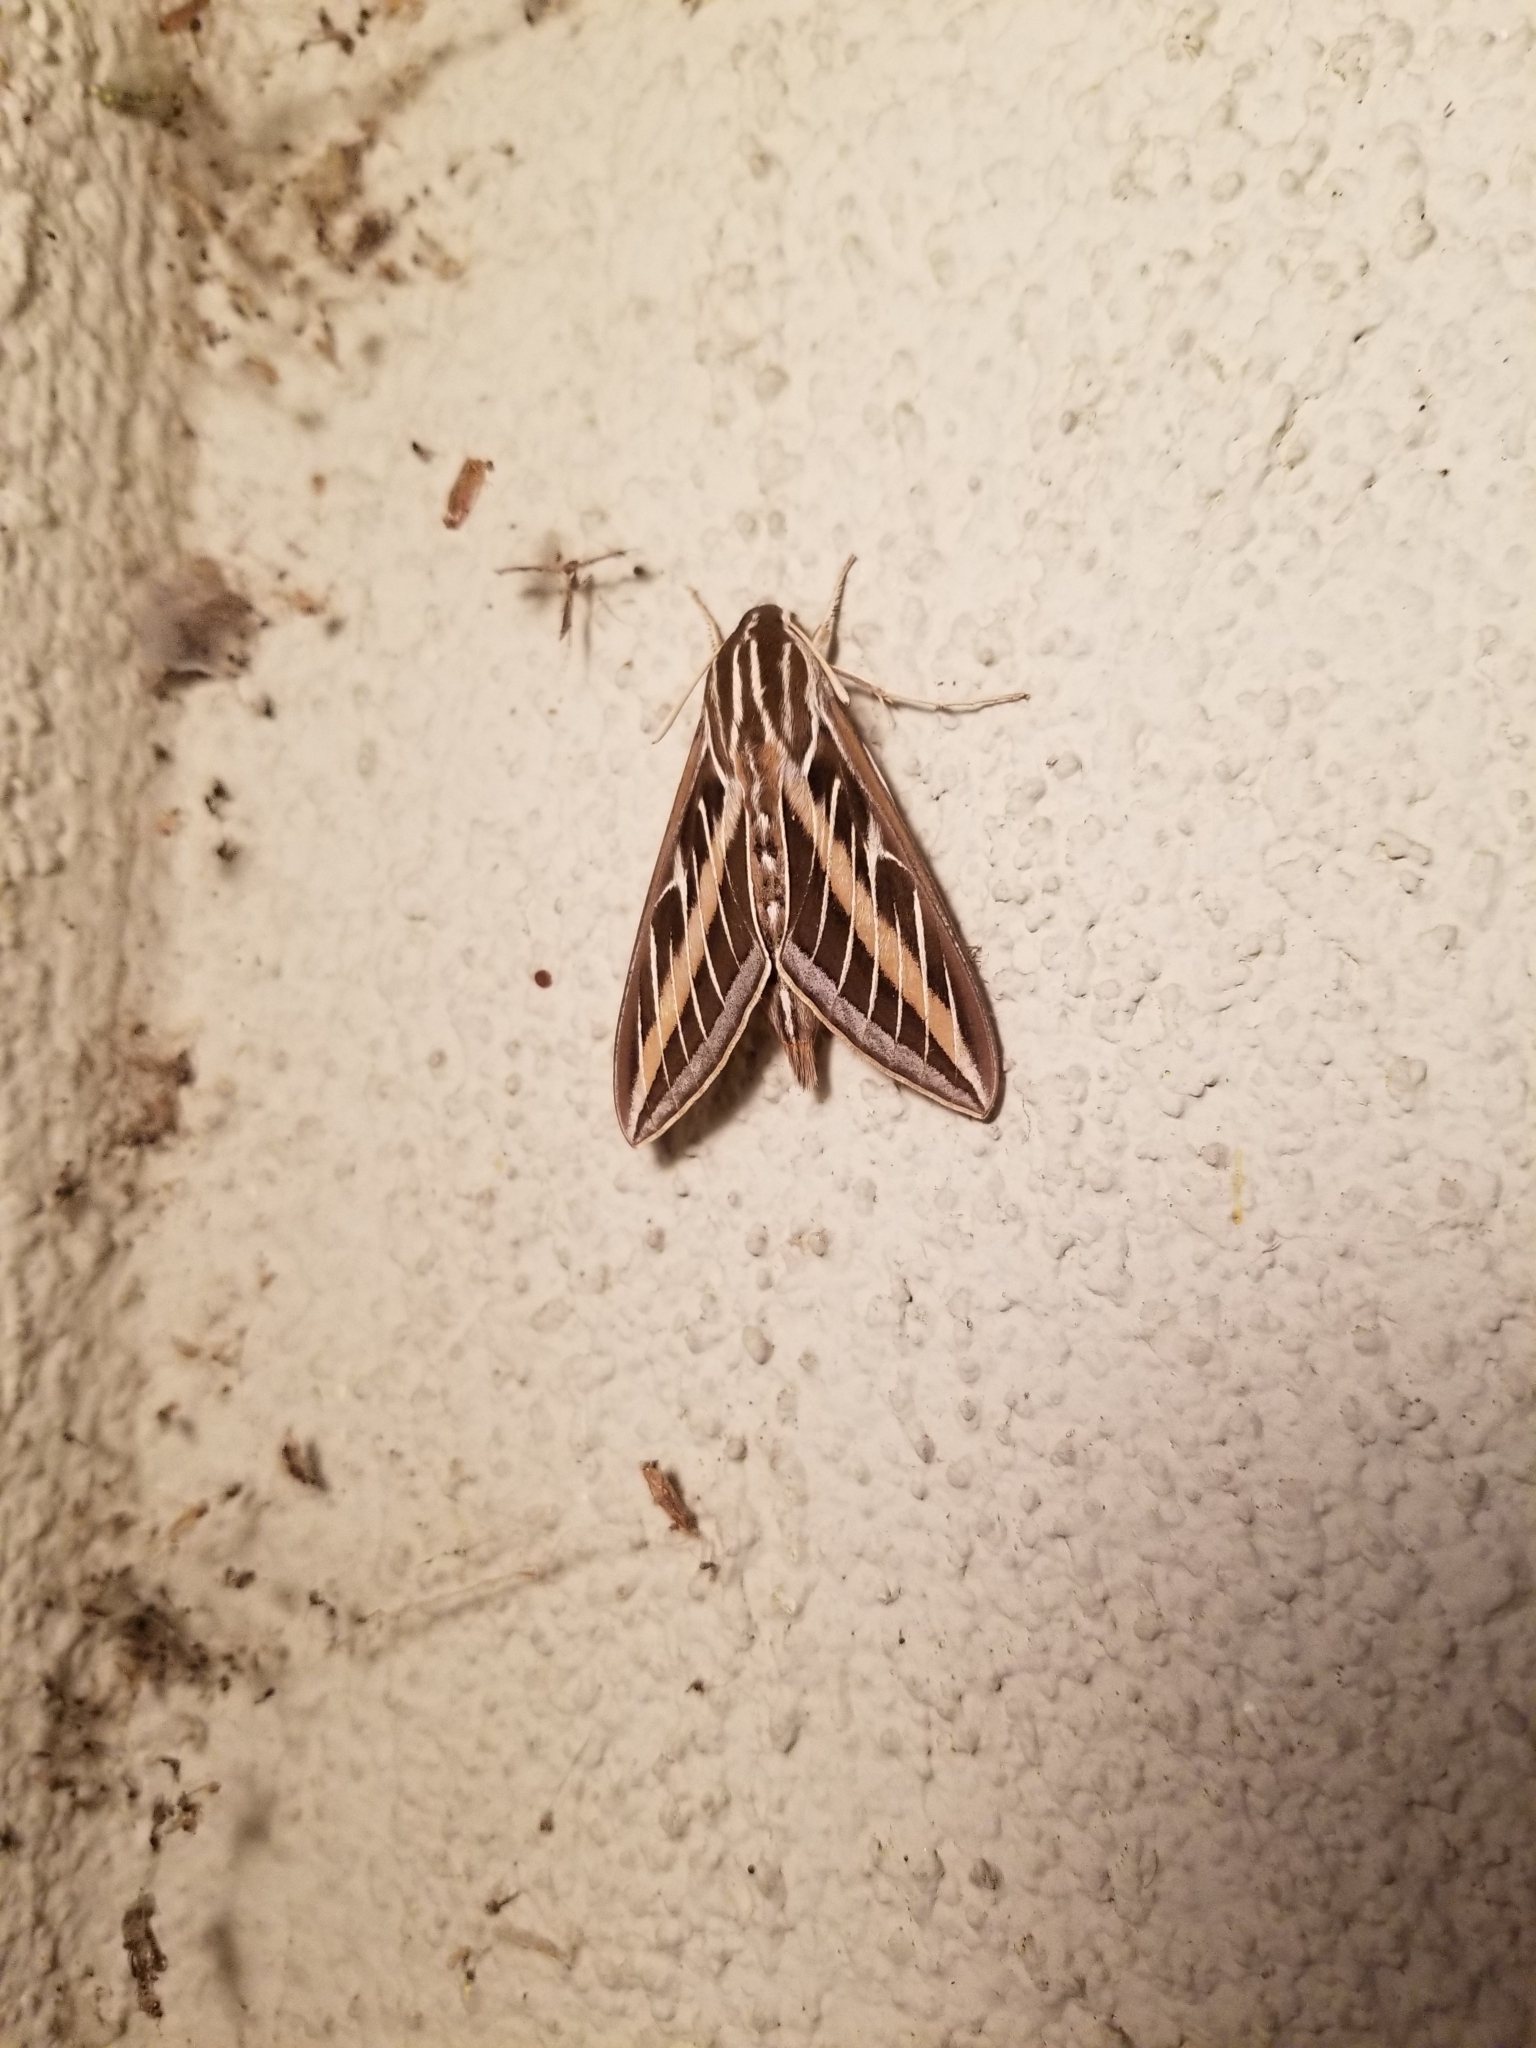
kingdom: Animalia
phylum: Arthropoda
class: Insecta
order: Lepidoptera
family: Sphingidae
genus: Hyles
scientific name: Hyles lineata
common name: White-lined sphinx
